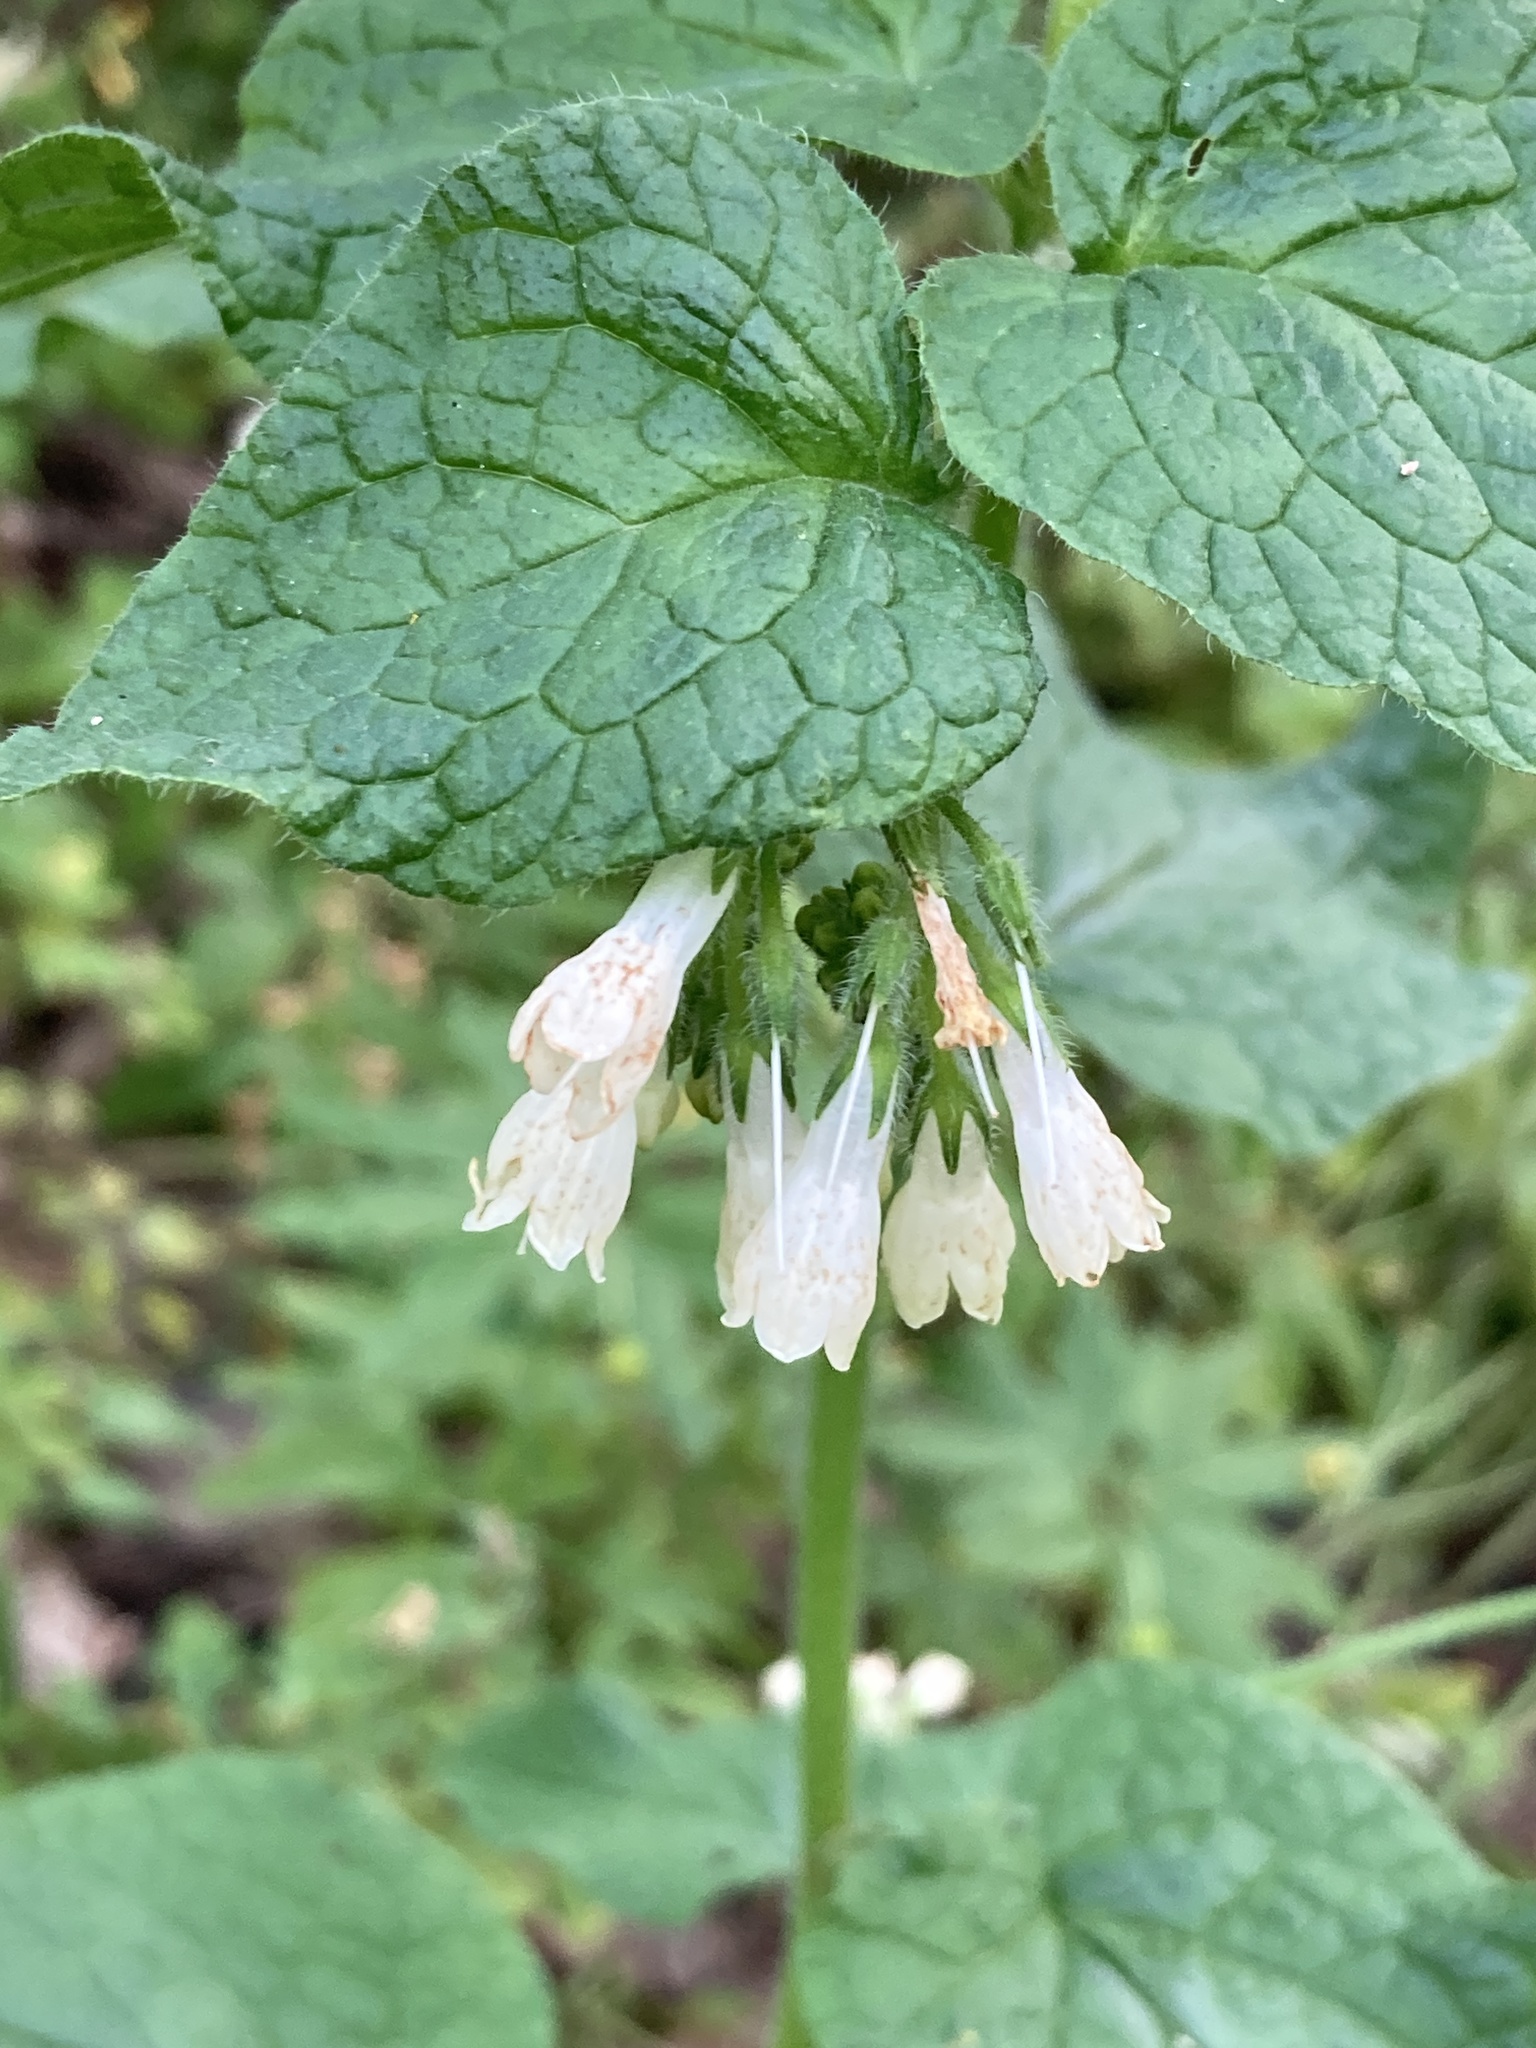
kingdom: Plantae
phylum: Tracheophyta
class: Magnoliopsida
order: Boraginales
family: Boraginaceae
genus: Symphytum
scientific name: Symphytum tauricum
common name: Crimean comfrey
